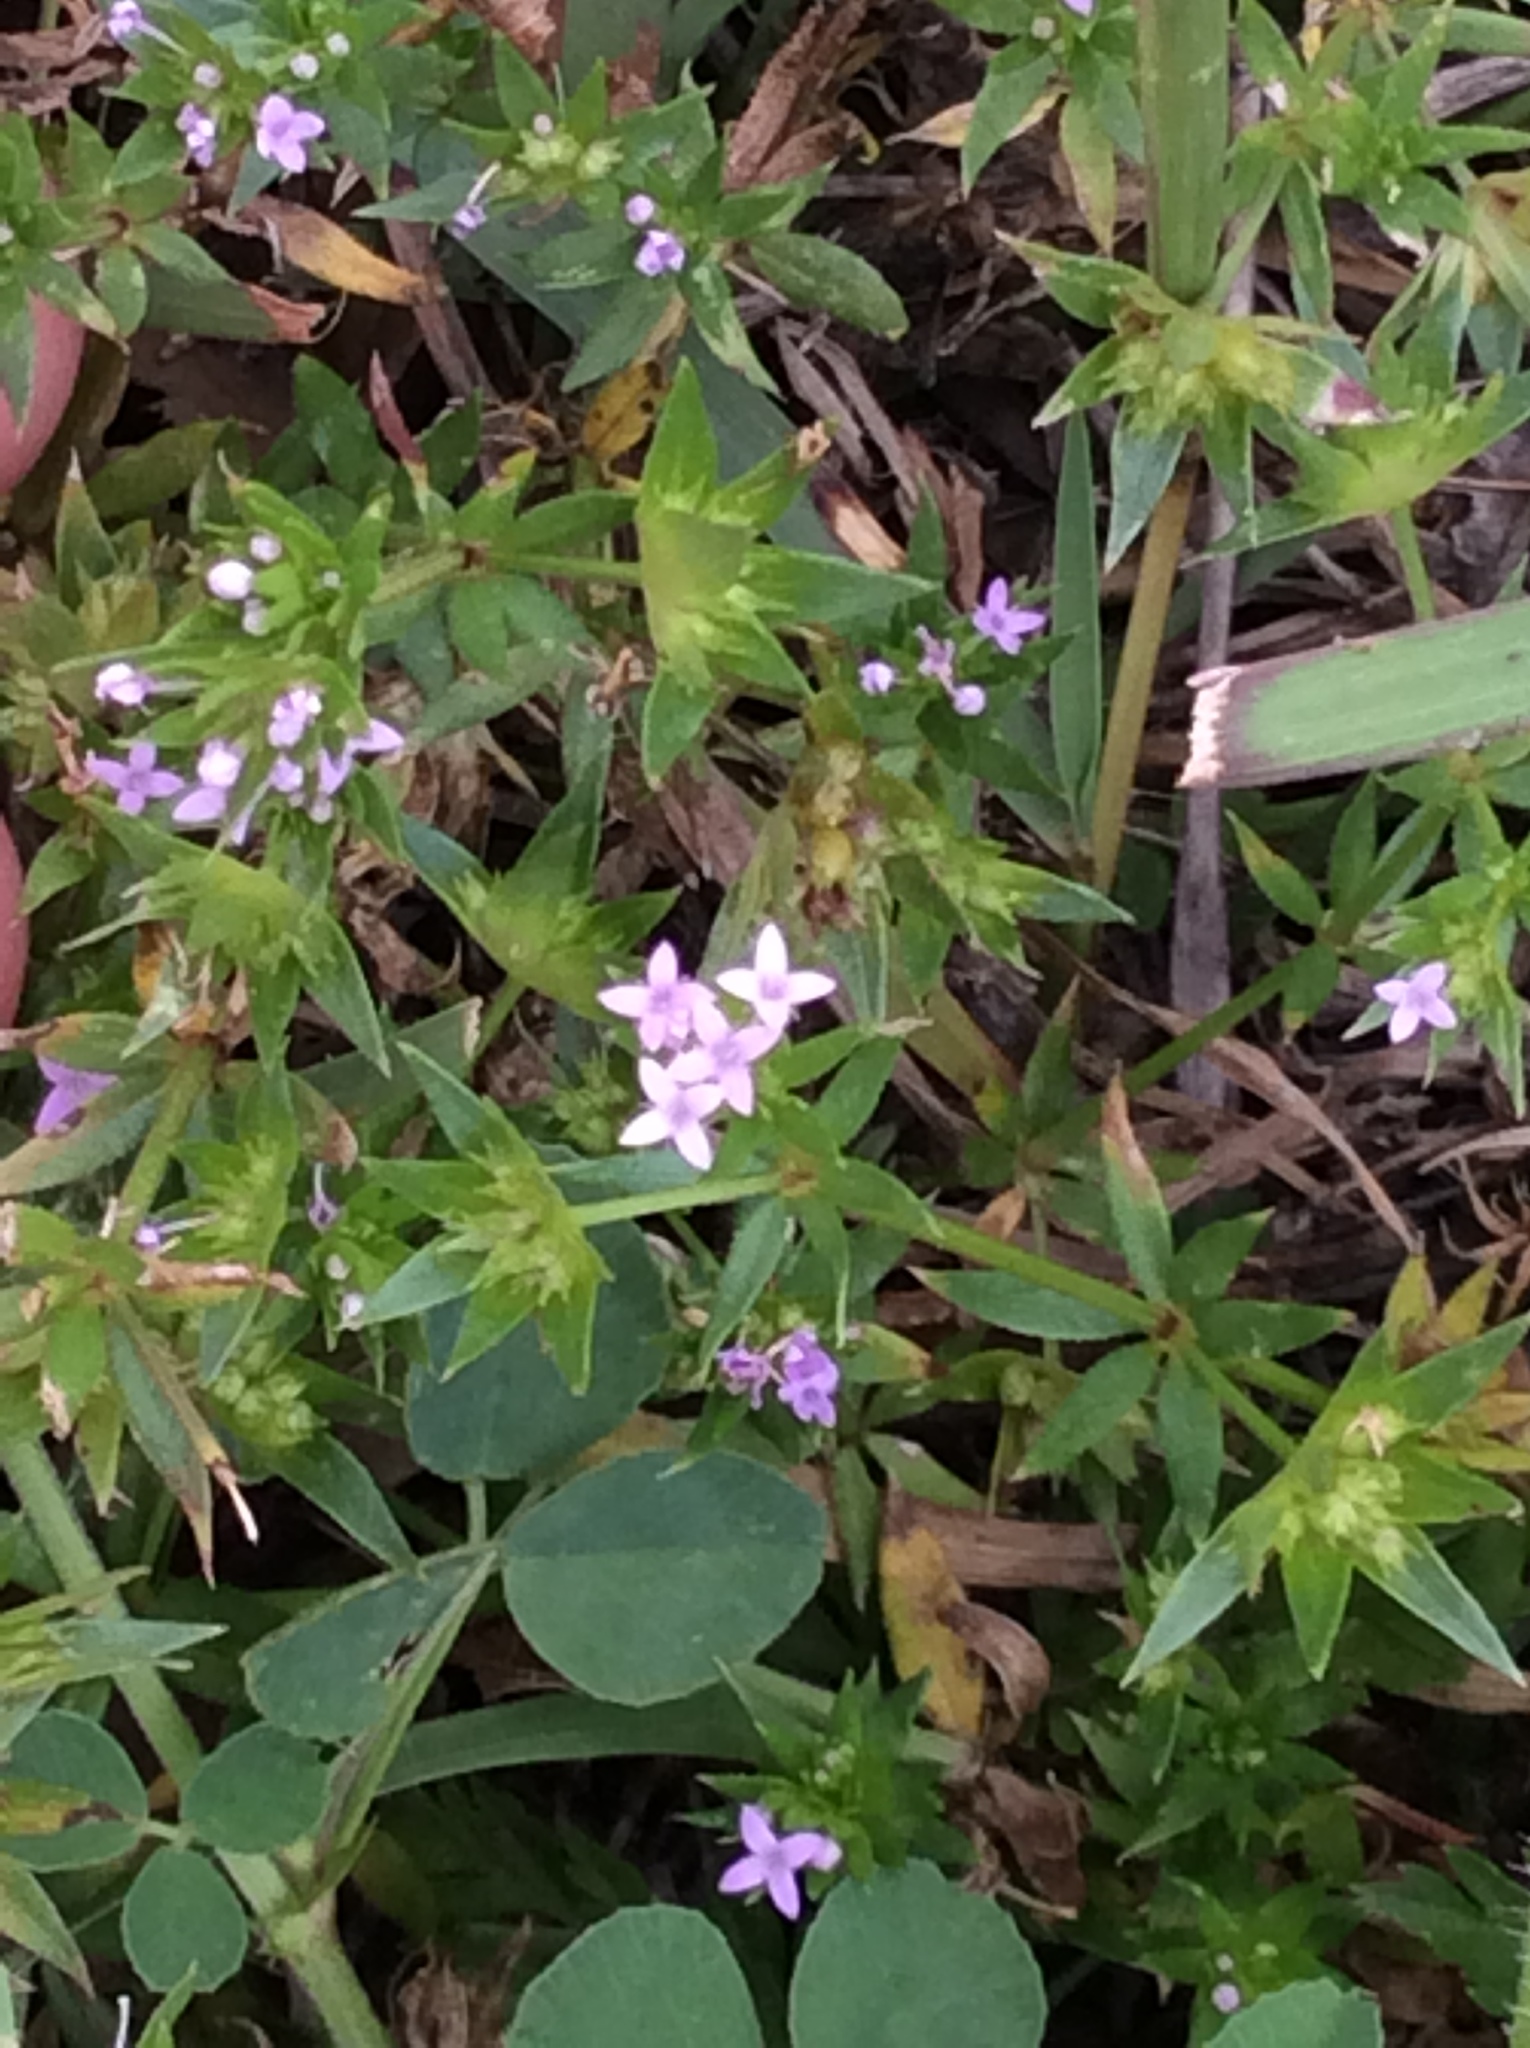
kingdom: Plantae
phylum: Tracheophyta
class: Magnoliopsida
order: Gentianales
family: Rubiaceae
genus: Sherardia
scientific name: Sherardia arvensis
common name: Field madder
